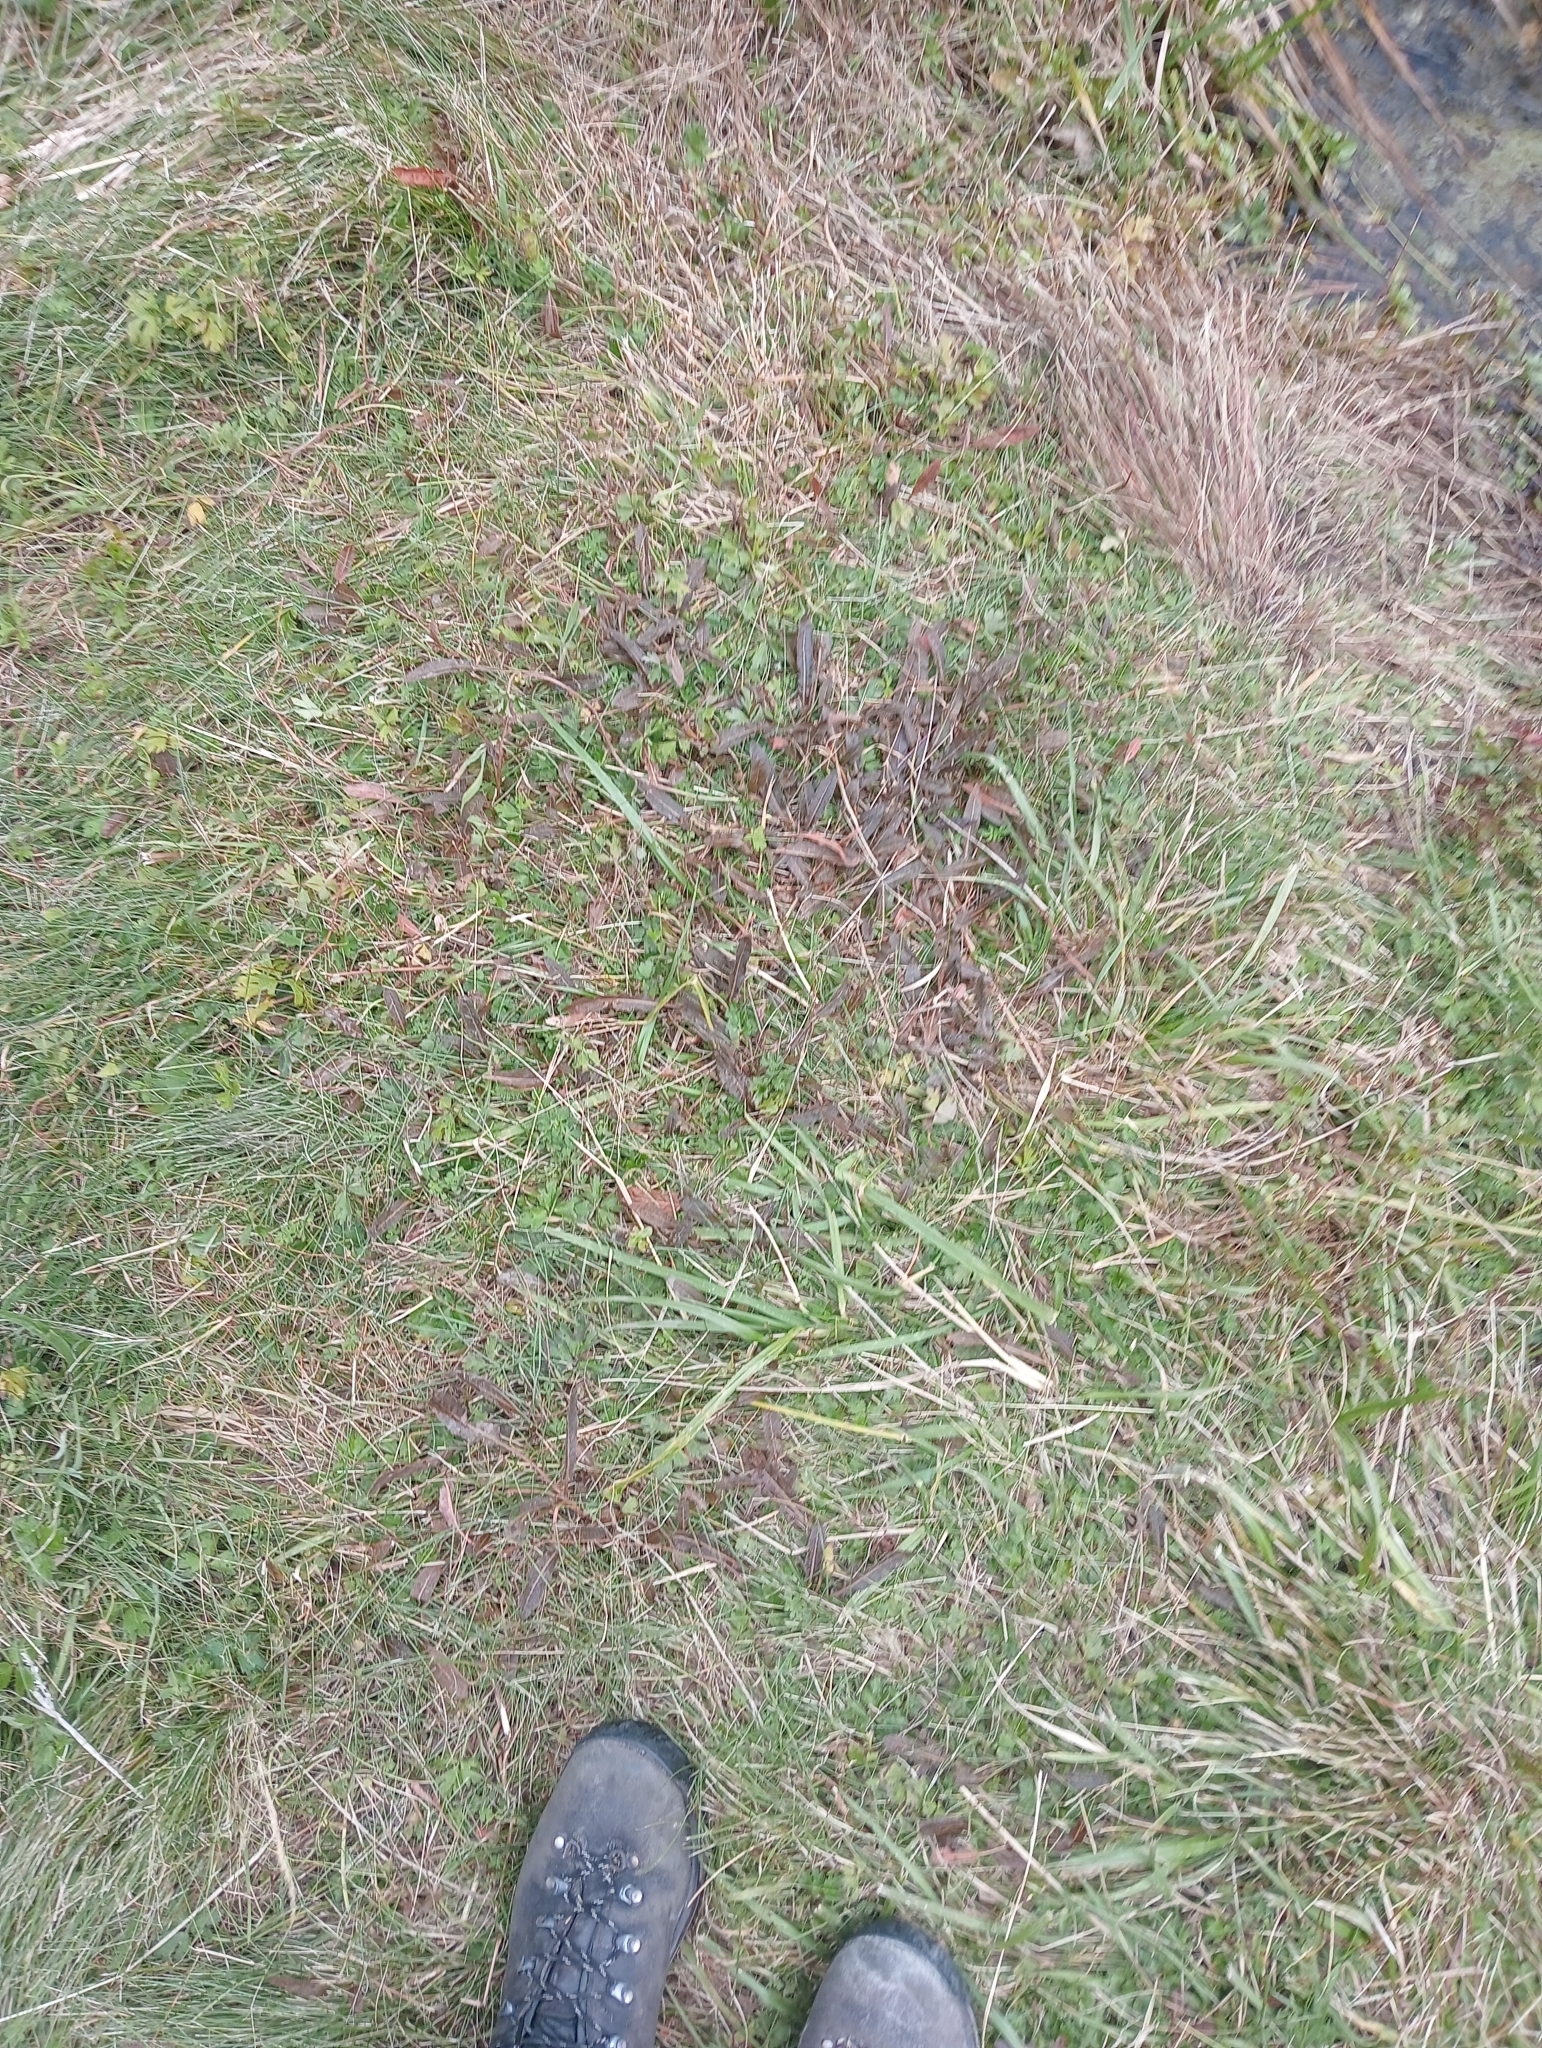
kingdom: Plantae
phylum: Tracheophyta
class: Magnoliopsida
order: Caryophyllales
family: Polygonaceae
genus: Rumex
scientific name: Rumex flexuosus
